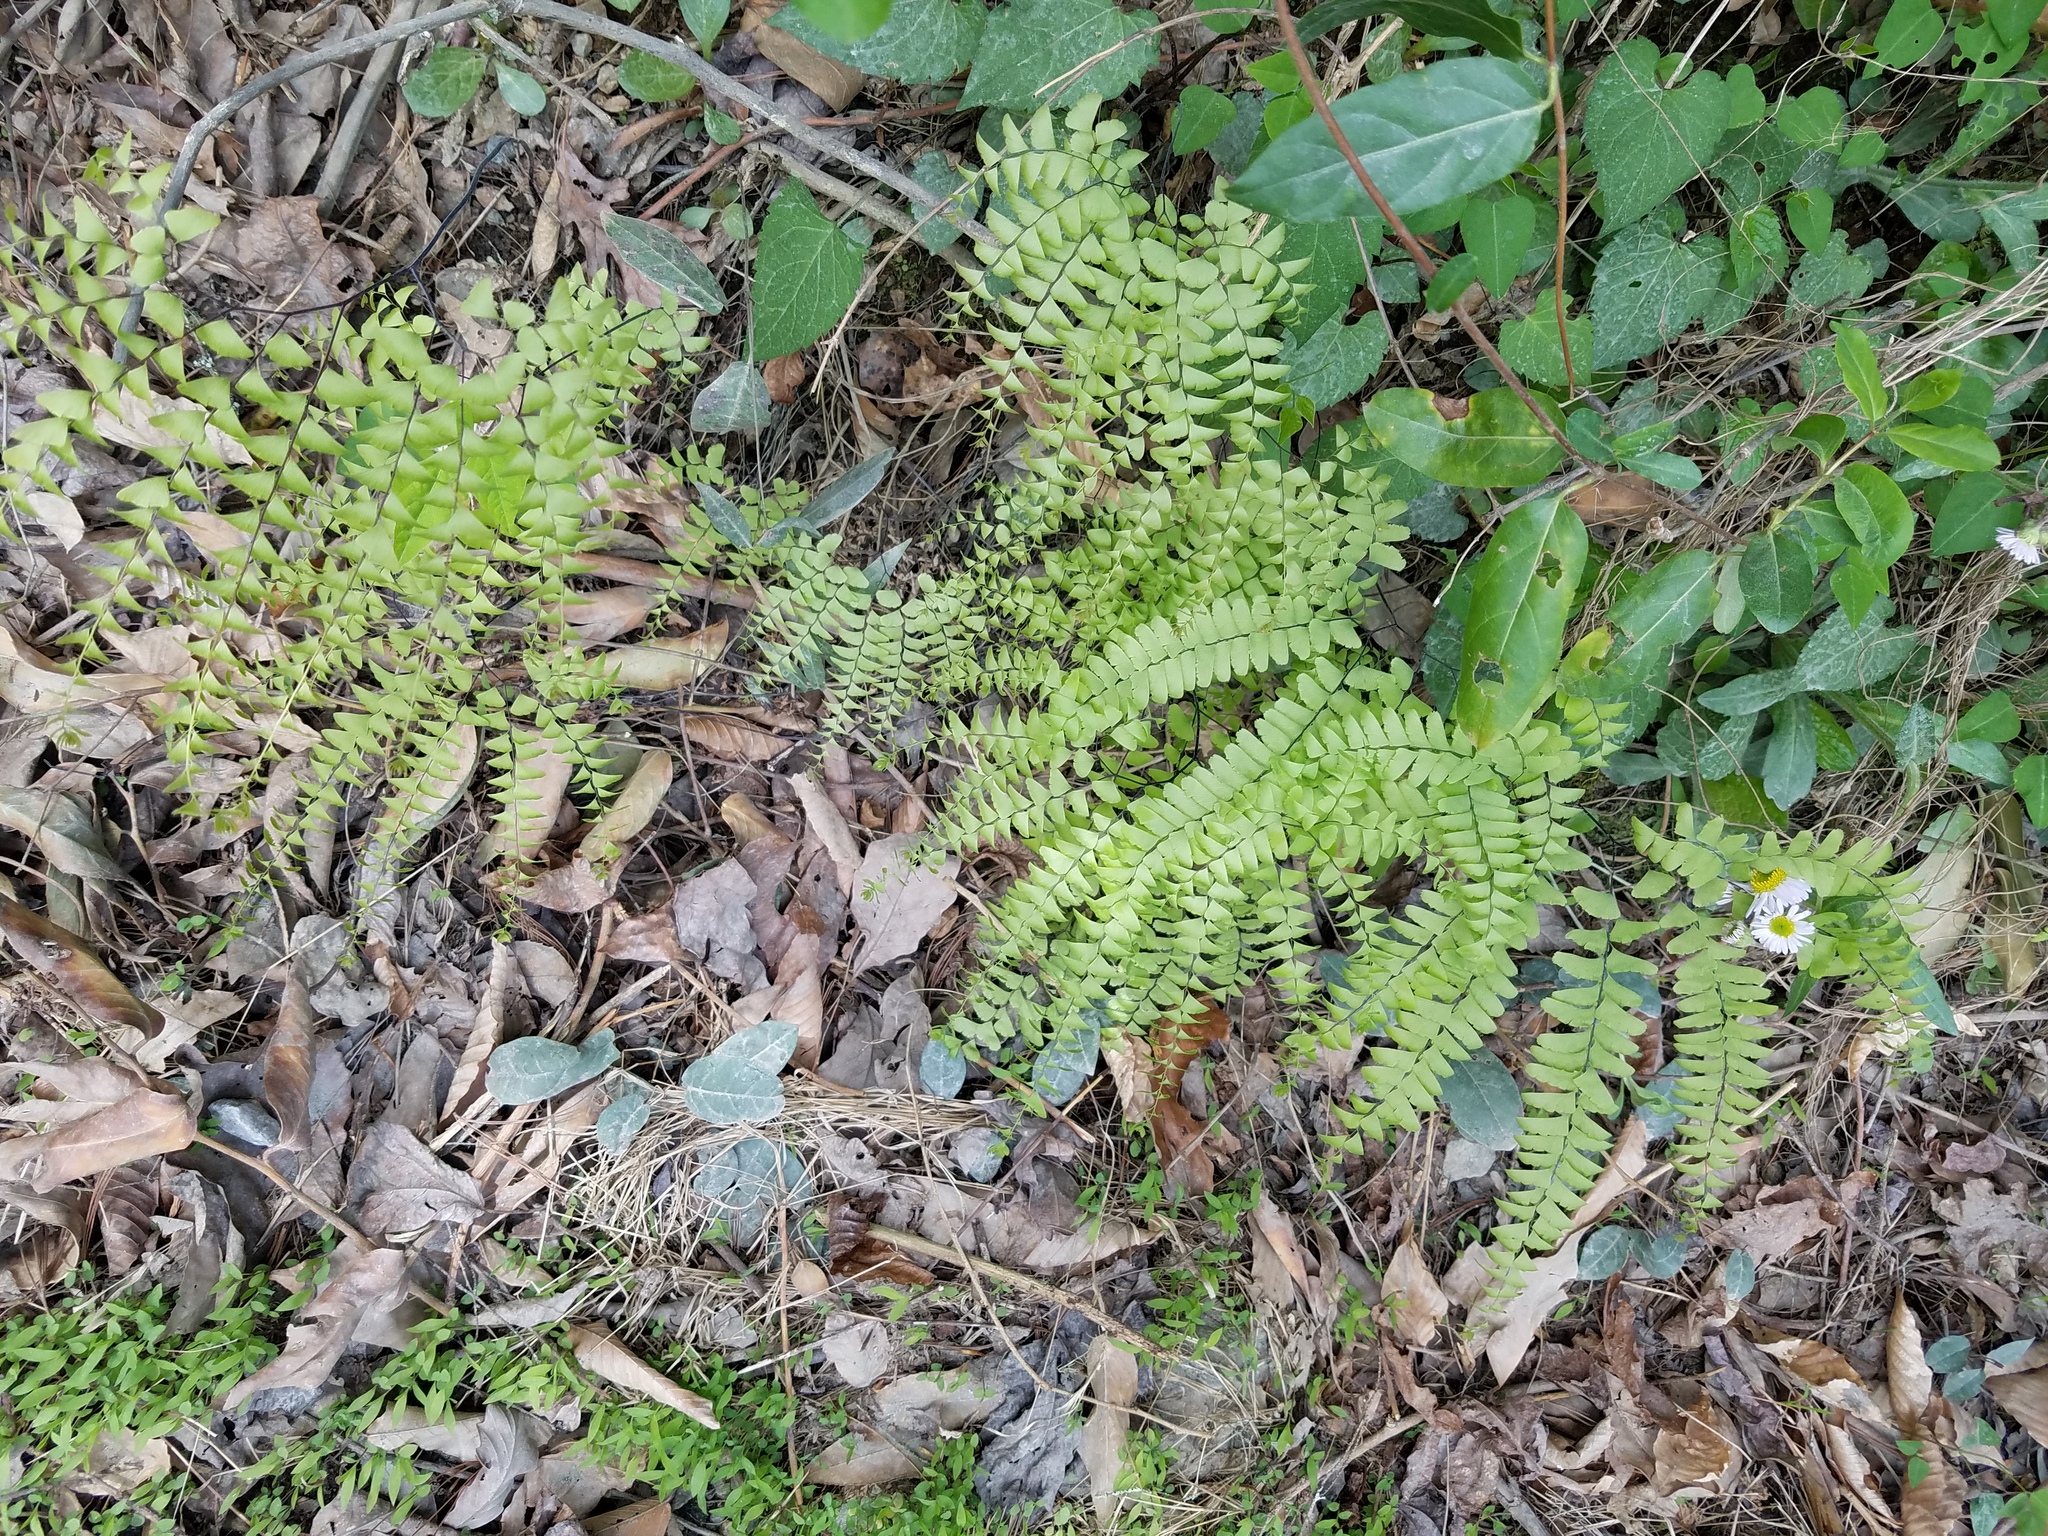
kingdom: Plantae
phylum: Tracheophyta
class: Polypodiopsida
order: Polypodiales
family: Pteridaceae
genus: Adiantum
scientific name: Adiantum pedatum
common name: Five-finger fern
